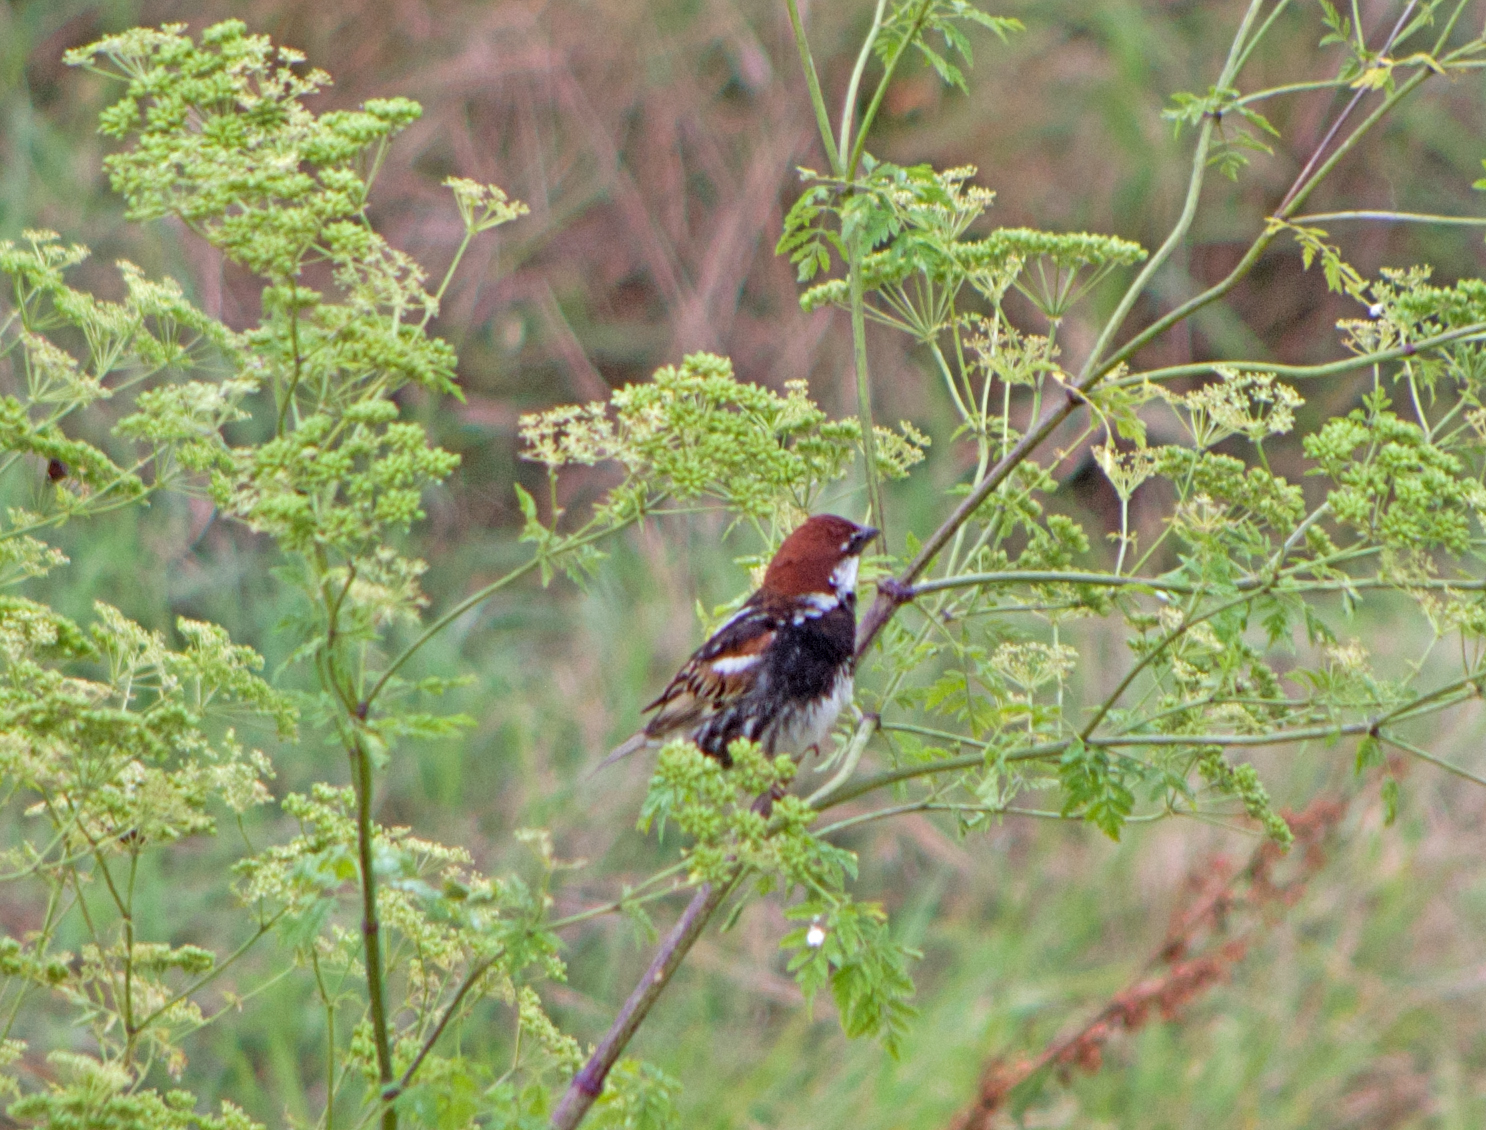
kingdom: Animalia
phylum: Chordata
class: Aves
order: Passeriformes
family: Passeridae
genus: Passer
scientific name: Passer hispaniolensis
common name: Spanish sparrow
